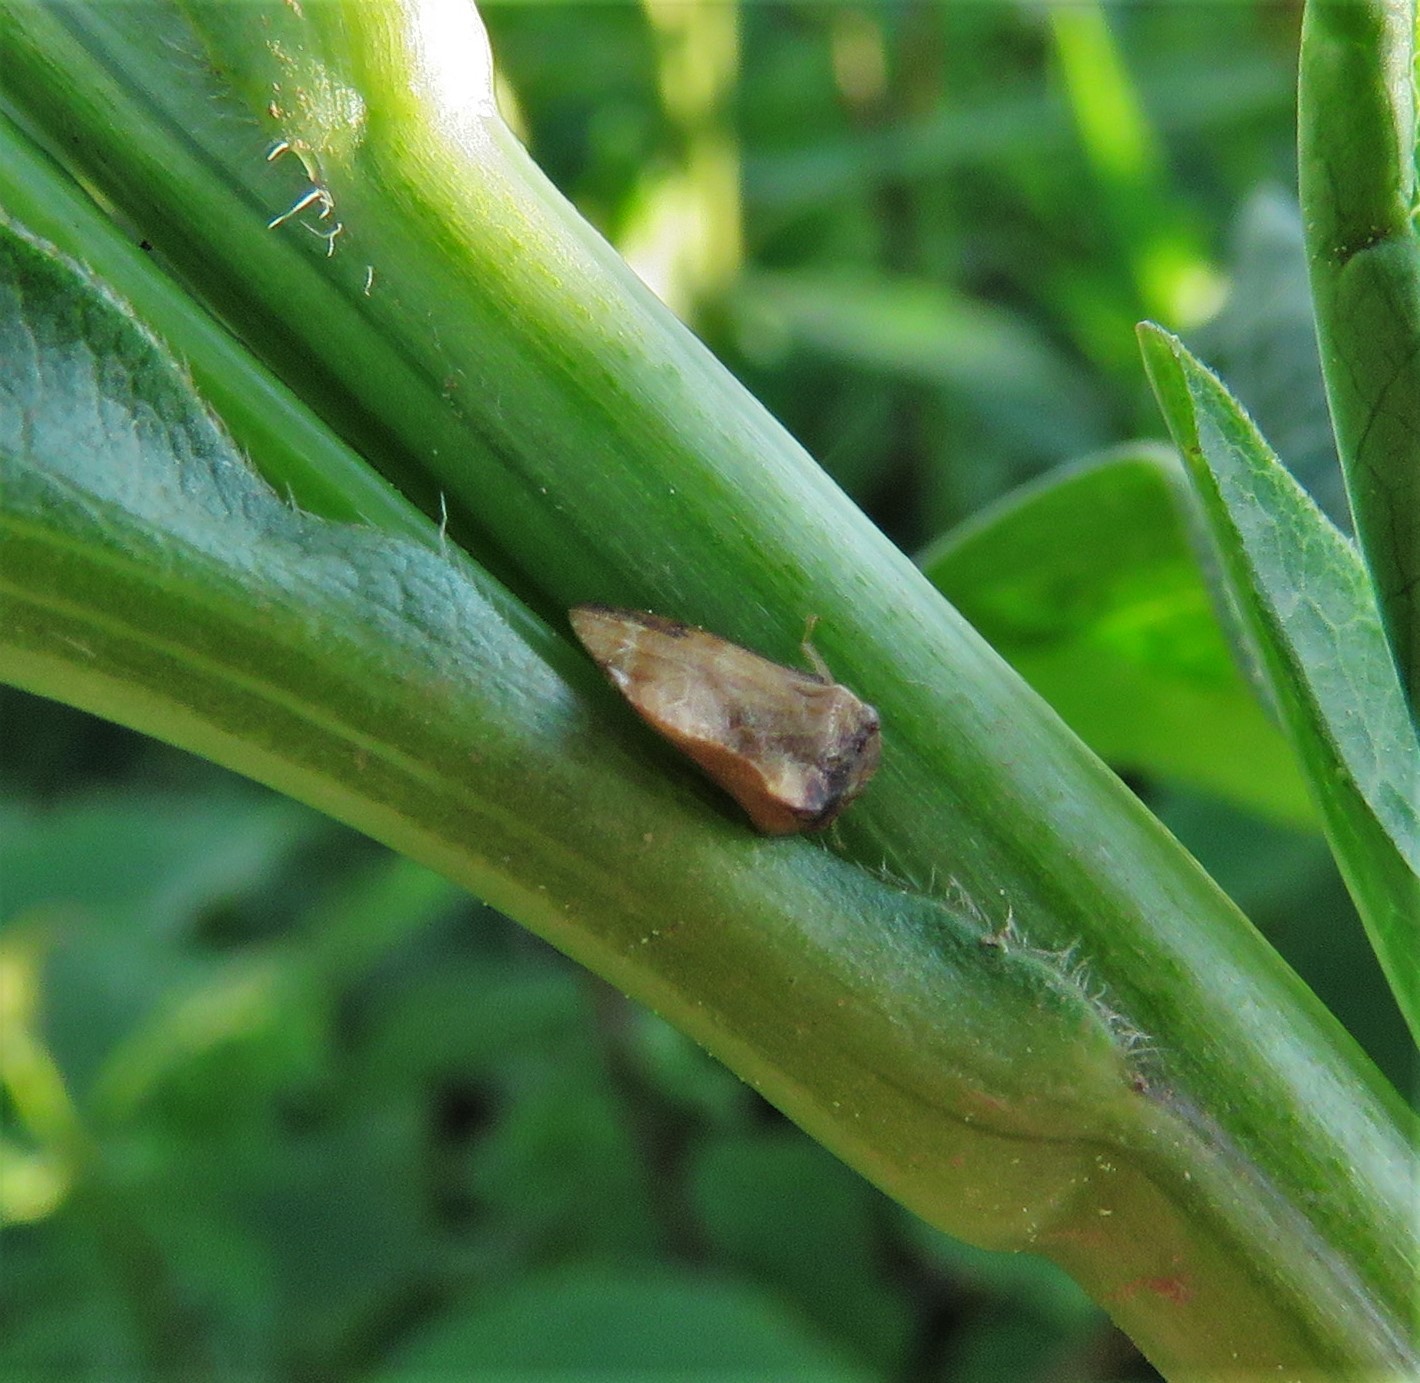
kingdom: Animalia
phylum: Arthropoda
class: Insecta
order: Hemiptera
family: Membracidae
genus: Entylia
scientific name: Entylia carinata
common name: Keeled treehopper
